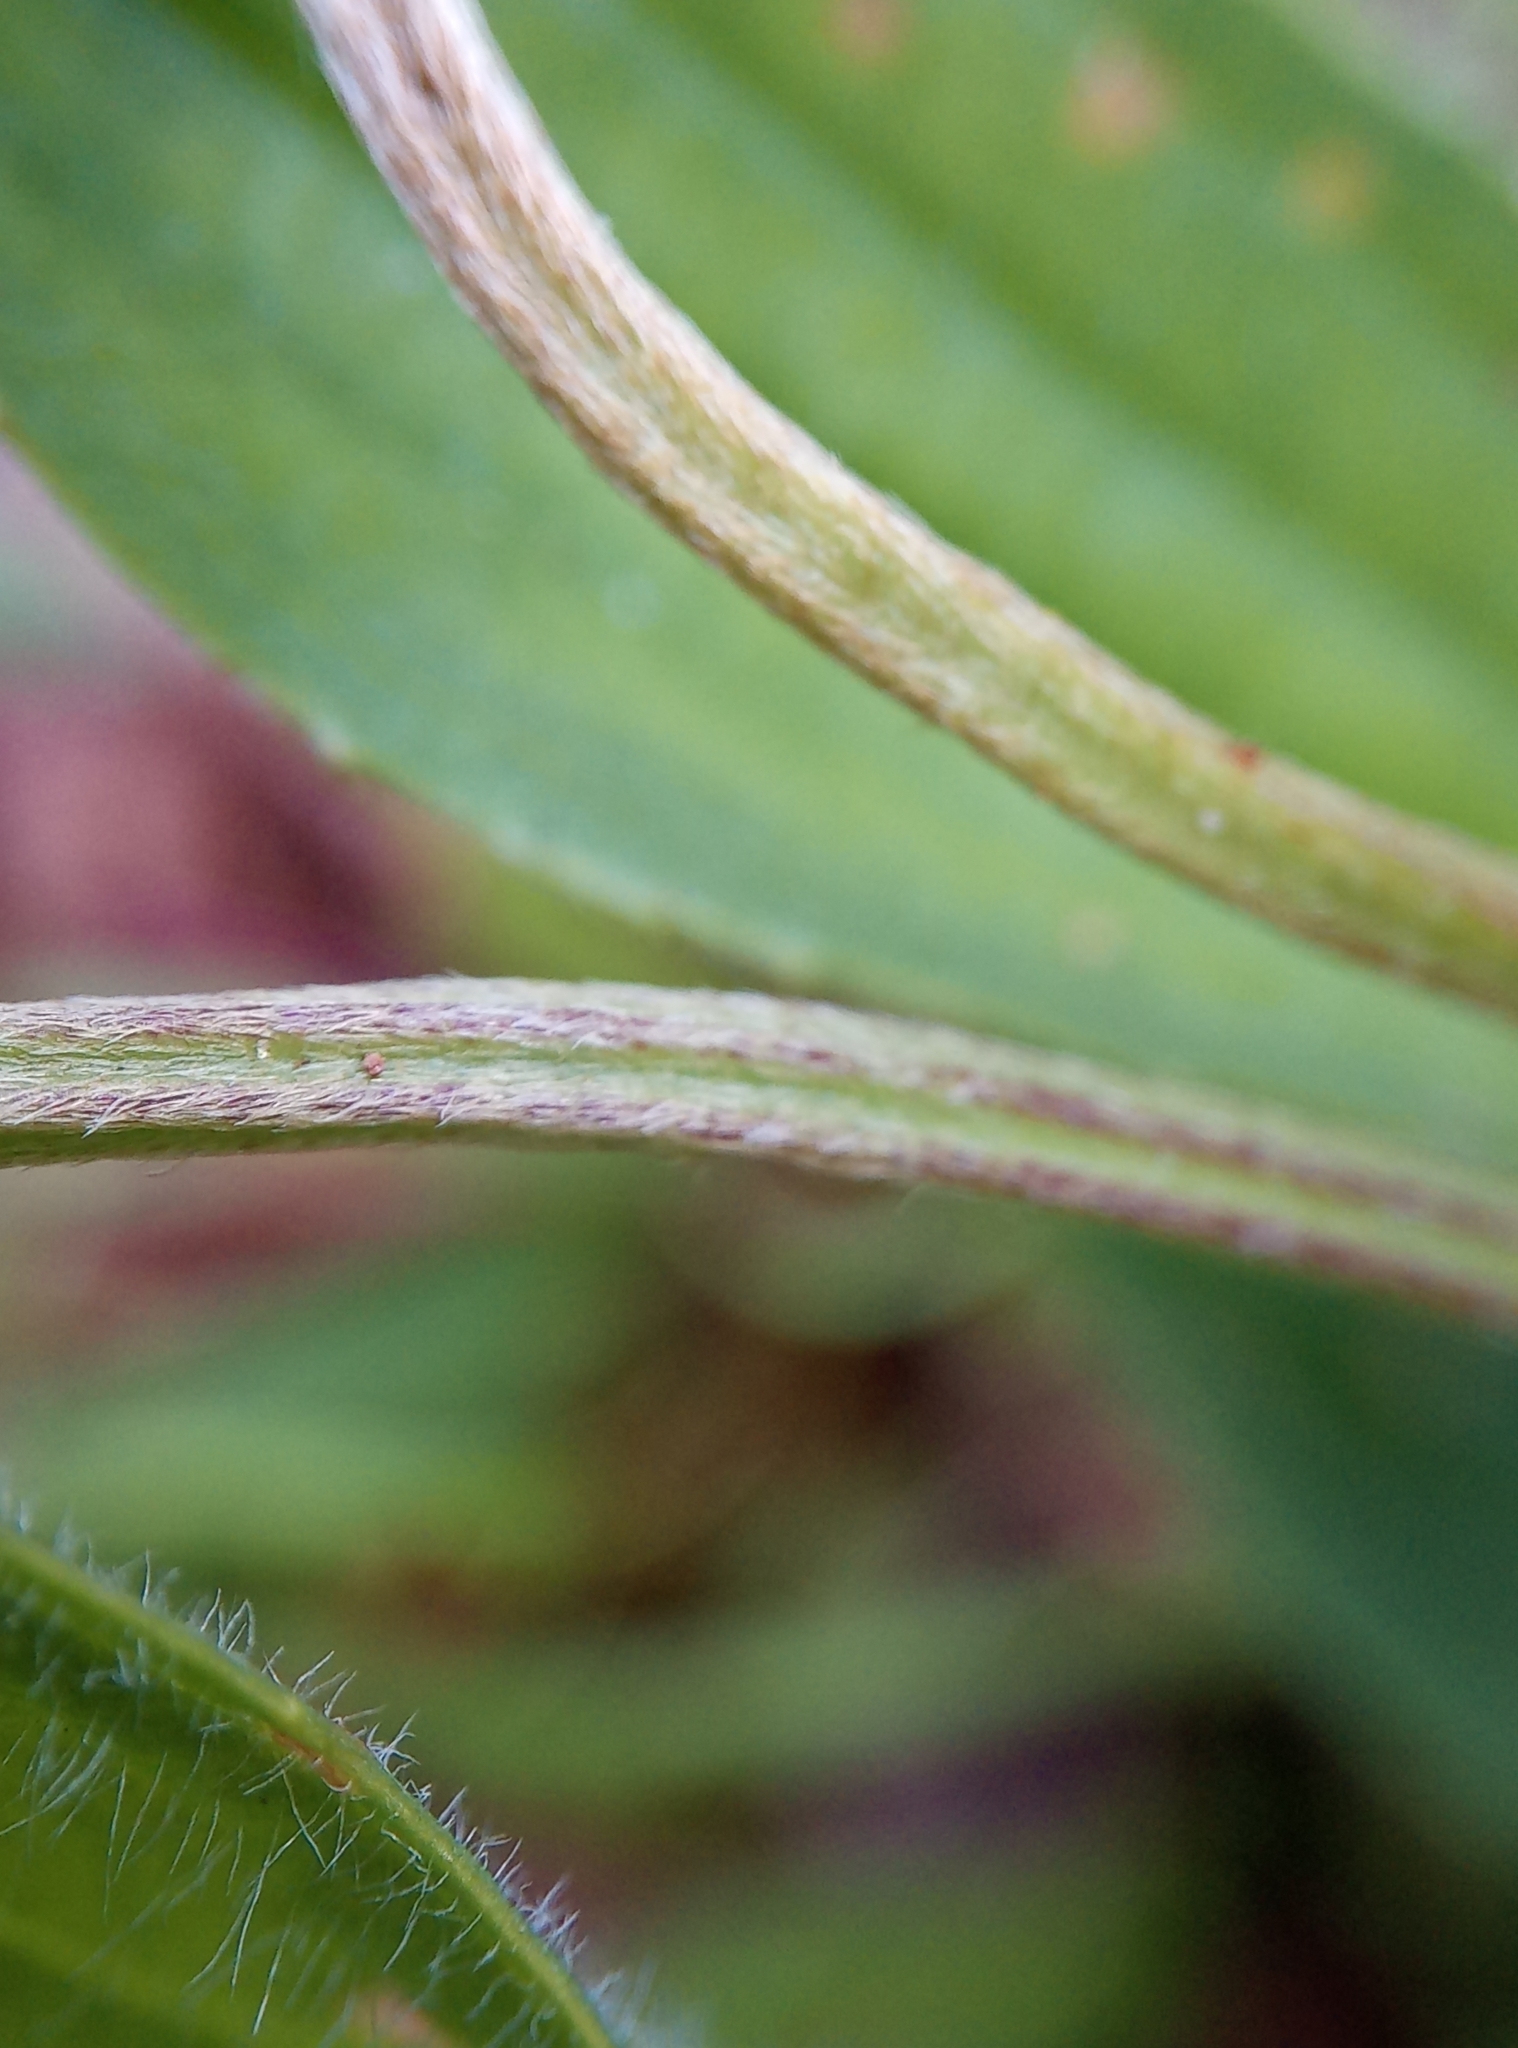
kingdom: Plantae
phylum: Tracheophyta
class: Magnoliopsida
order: Lamiales
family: Plantaginaceae
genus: Plantago
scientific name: Plantago lanceolata
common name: Ribwort plantain
